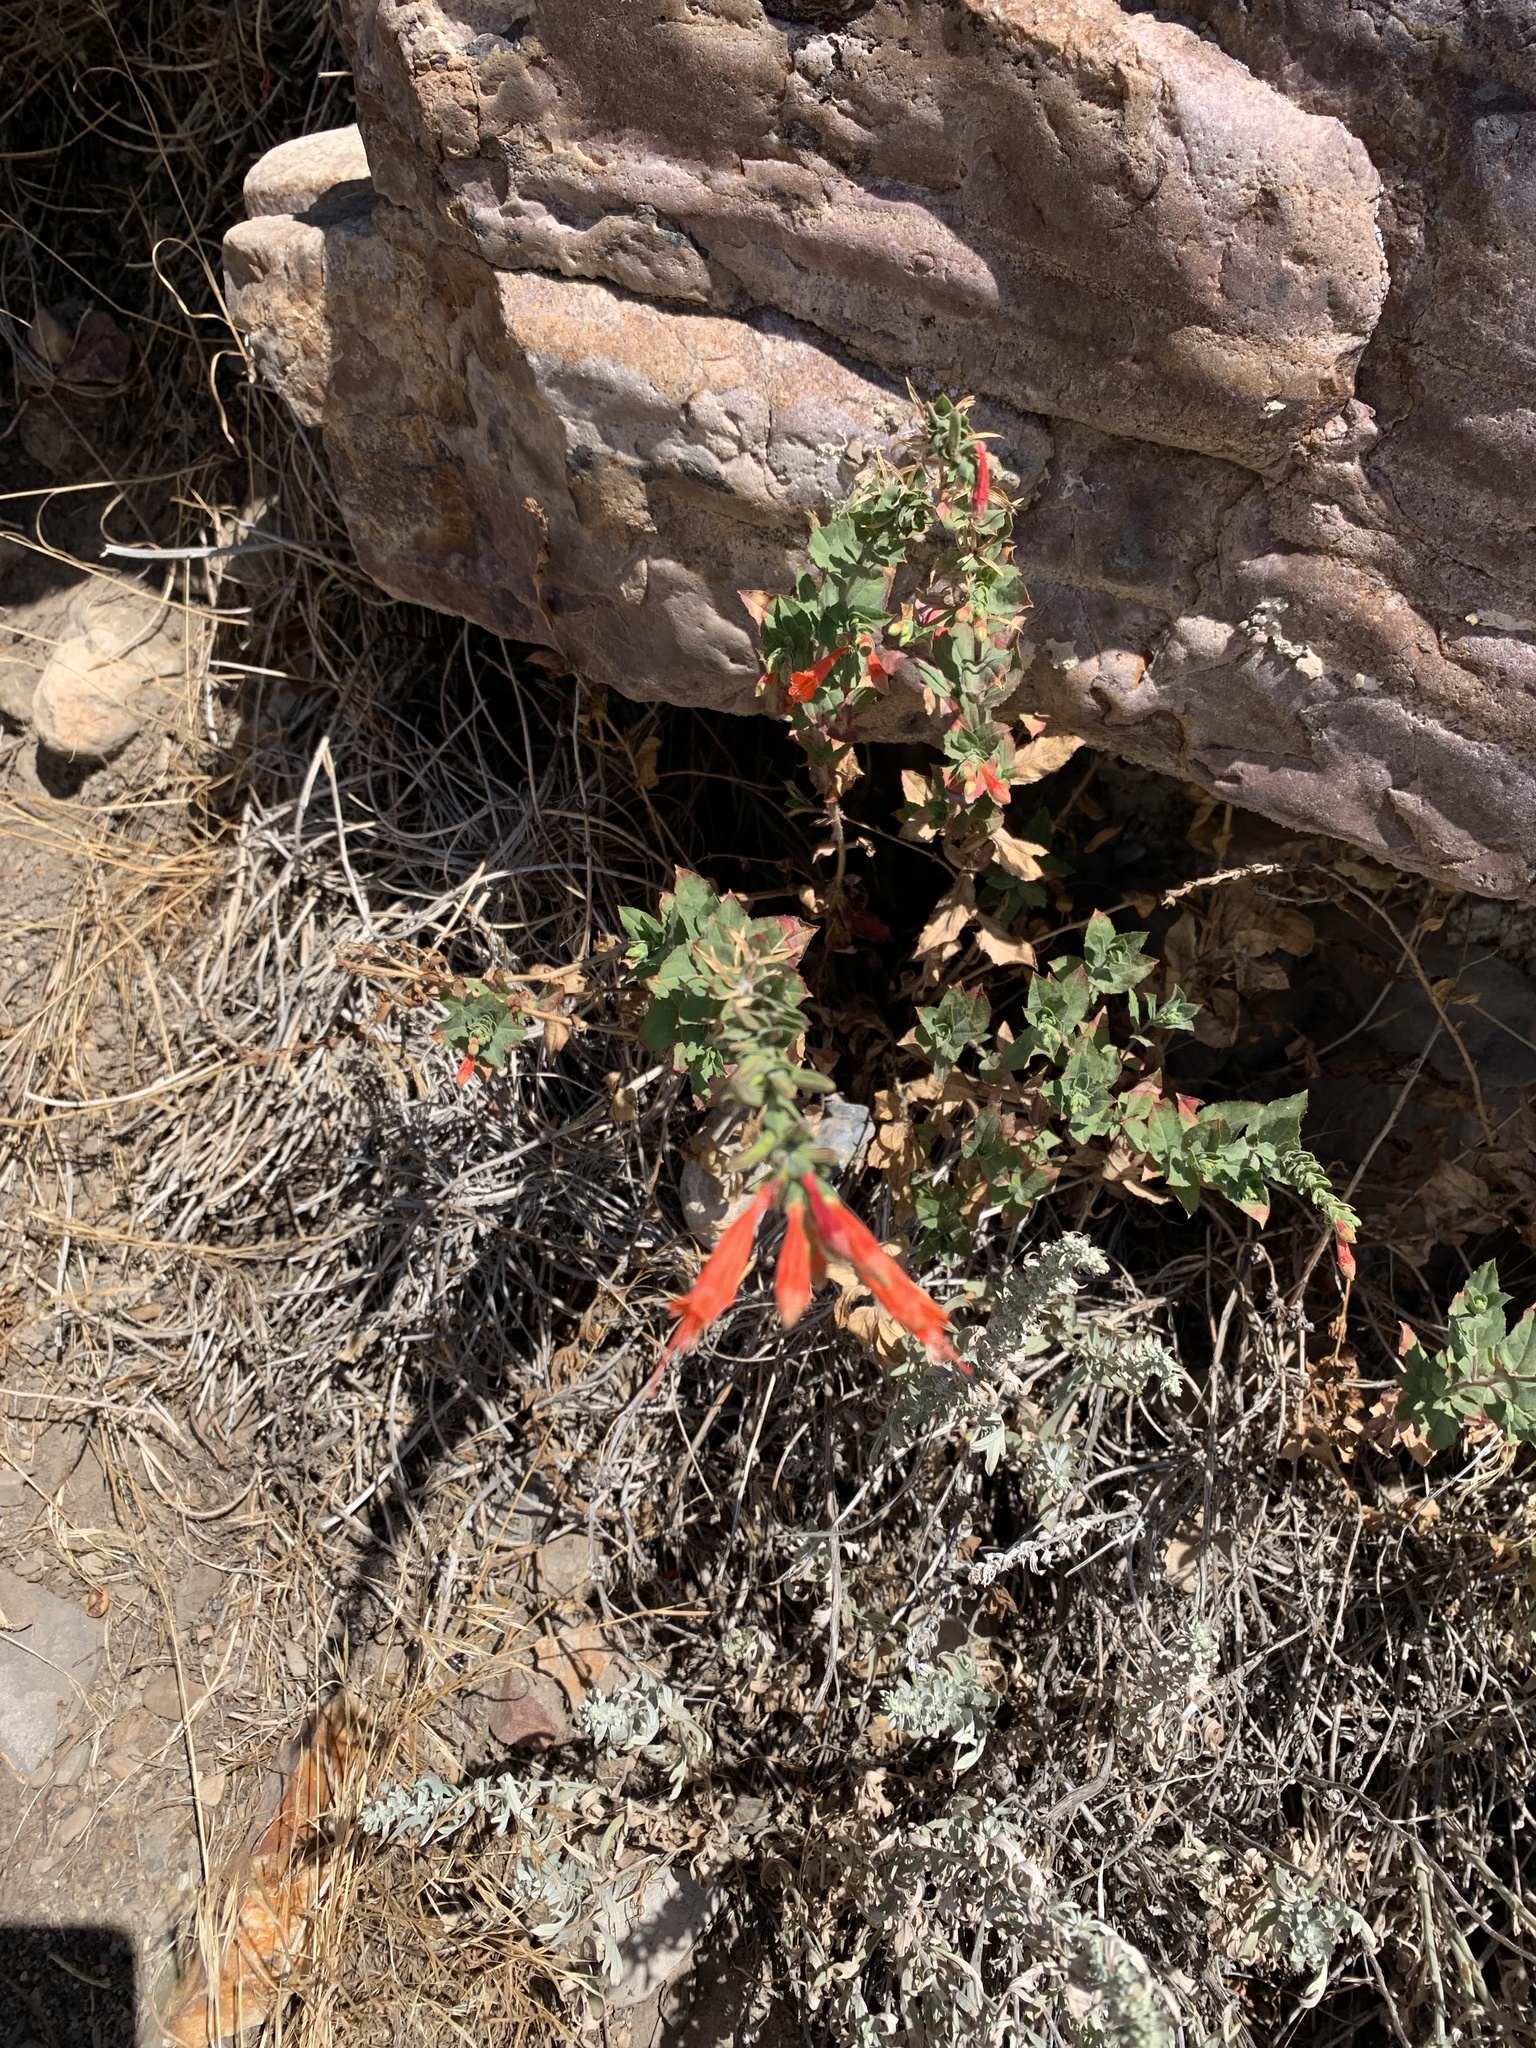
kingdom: Plantae
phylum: Tracheophyta
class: Magnoliopsida
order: Myrtales
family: Onagraceae
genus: Epilobium
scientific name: Epilobium canum
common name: California-fuchsia
